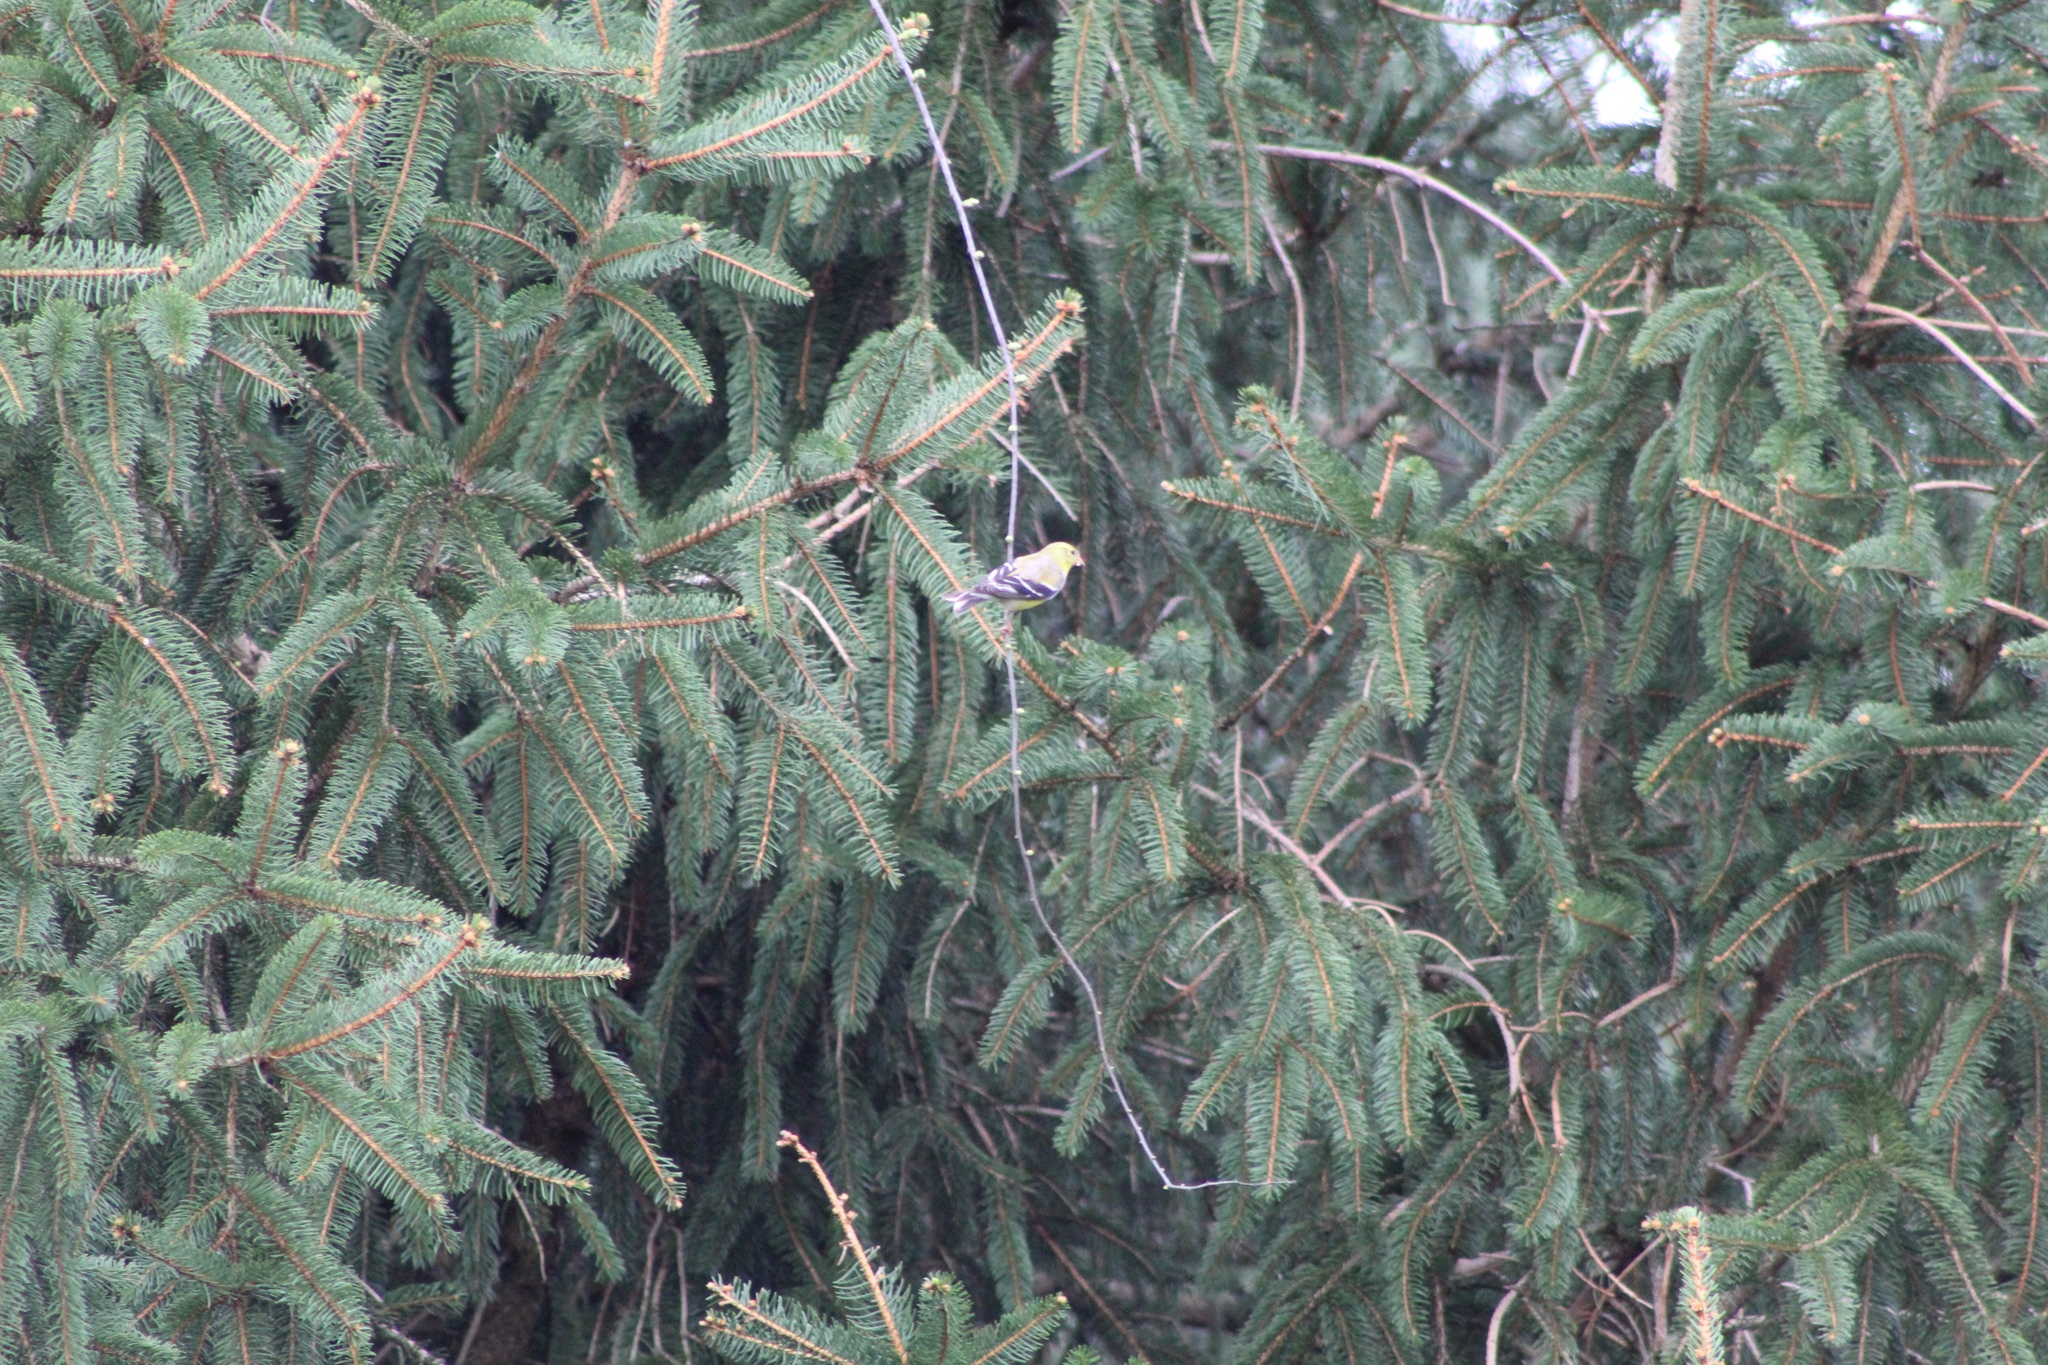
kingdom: Animalia
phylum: Chordata
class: Aves
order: Passeriformes
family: Fringillidae
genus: Spinus
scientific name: Spinus tristis
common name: American goldfinch
